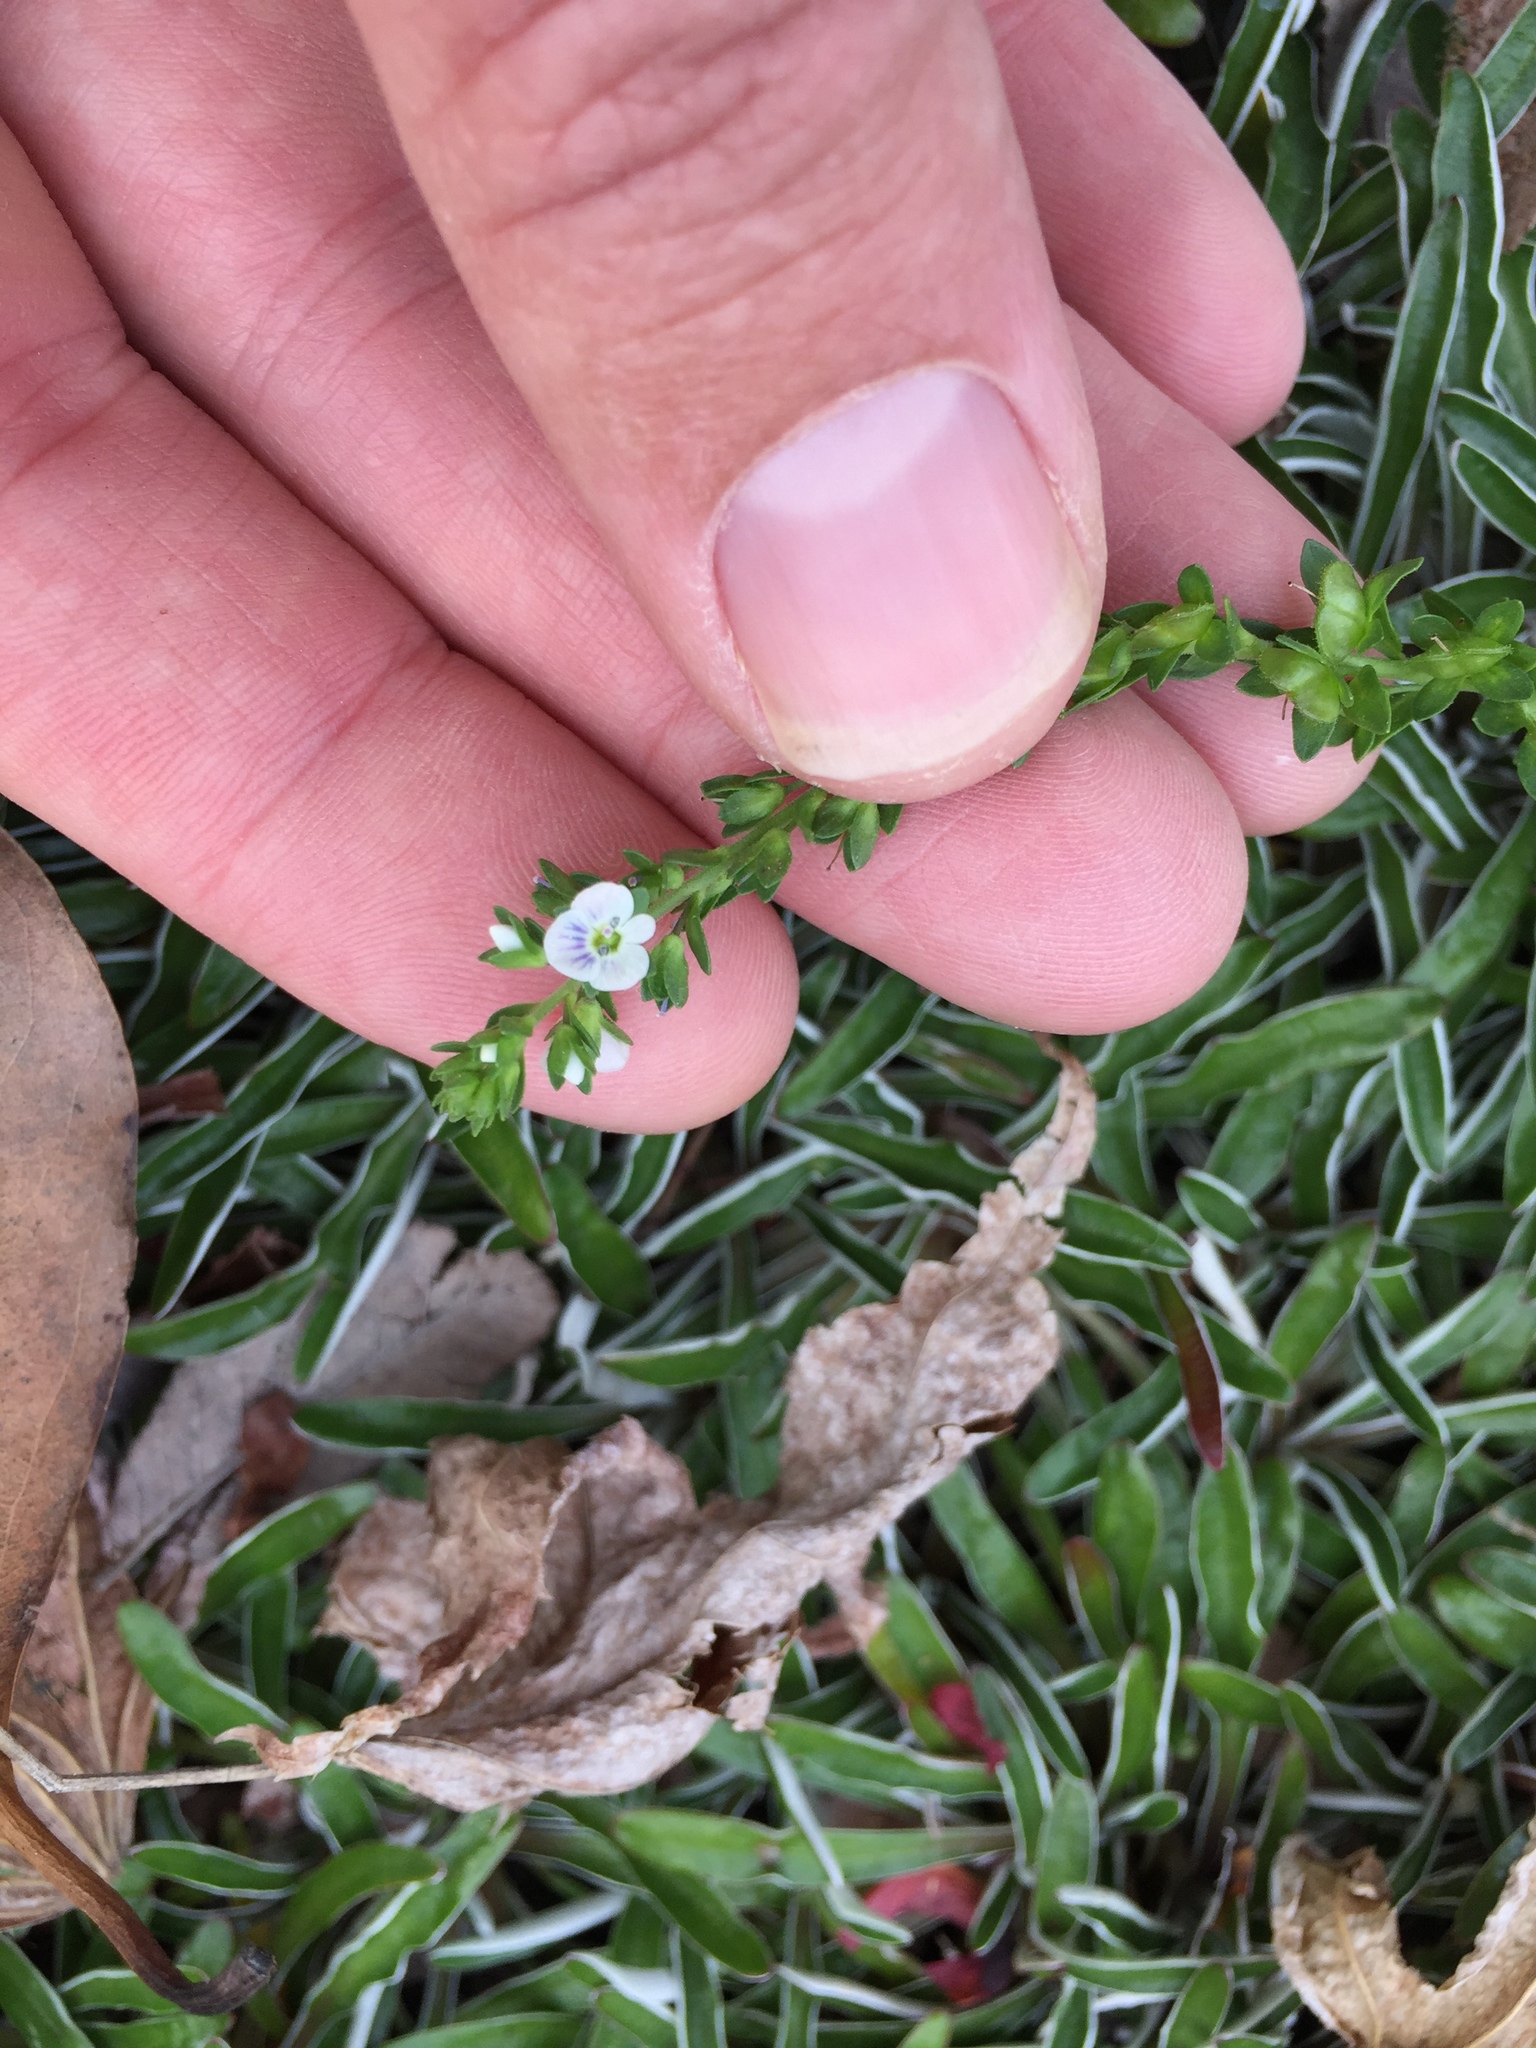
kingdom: Plantae
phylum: Tracheophyta
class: Magnoliopsida
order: Lamiales
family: Plantaginaceae
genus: Veronica
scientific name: Veronica serpyllifolia
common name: Thyme-leaved speedwell
